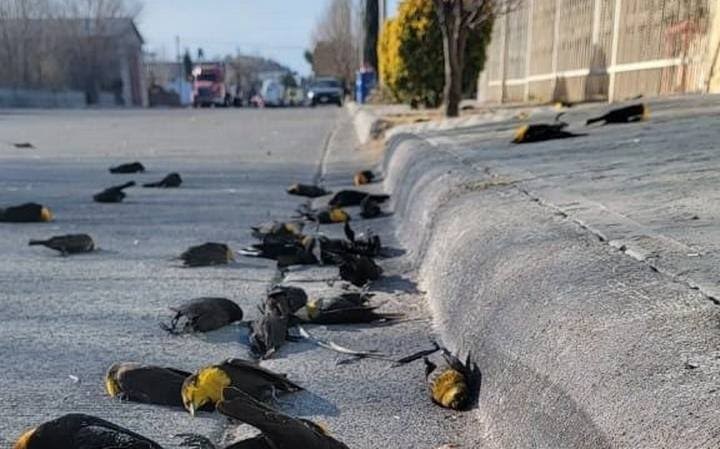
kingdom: Animalia
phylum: Chordata
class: Aves
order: Passeriformes
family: Icteridae
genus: Xanthocephalus
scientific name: Xanthocephalus xanthocephalus
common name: Yellow-headed blackbird
